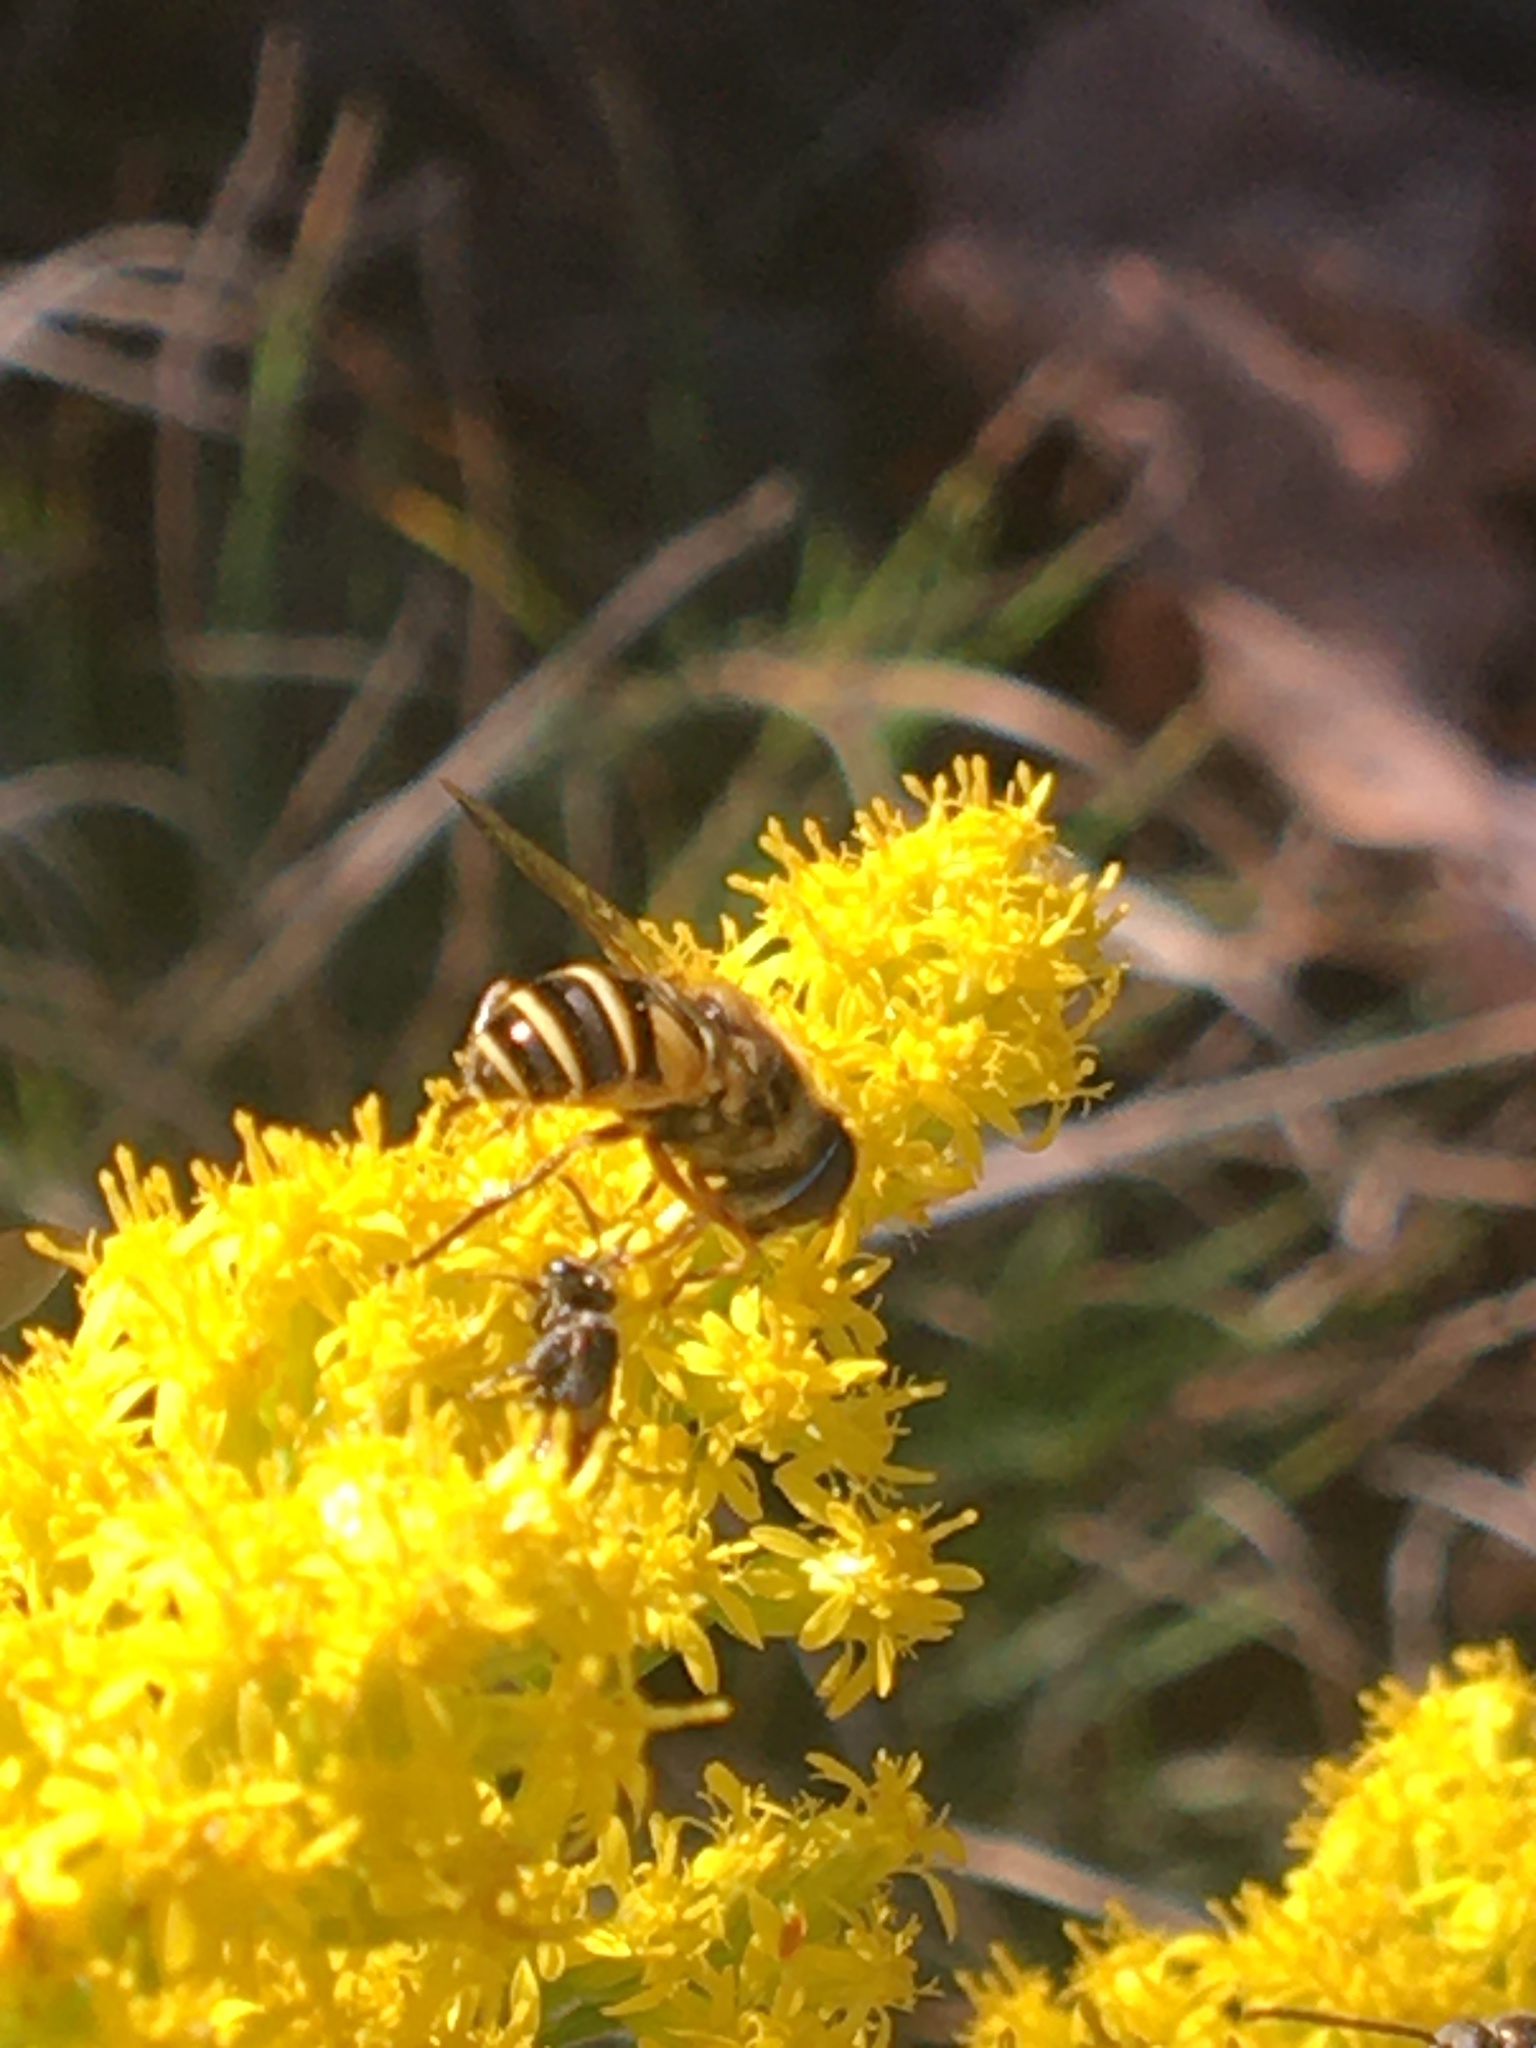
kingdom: Animalia
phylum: Arthropoda
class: Insecta
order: Diptera
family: Syrphidae
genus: Eristalis
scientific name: Eristalis transversa
